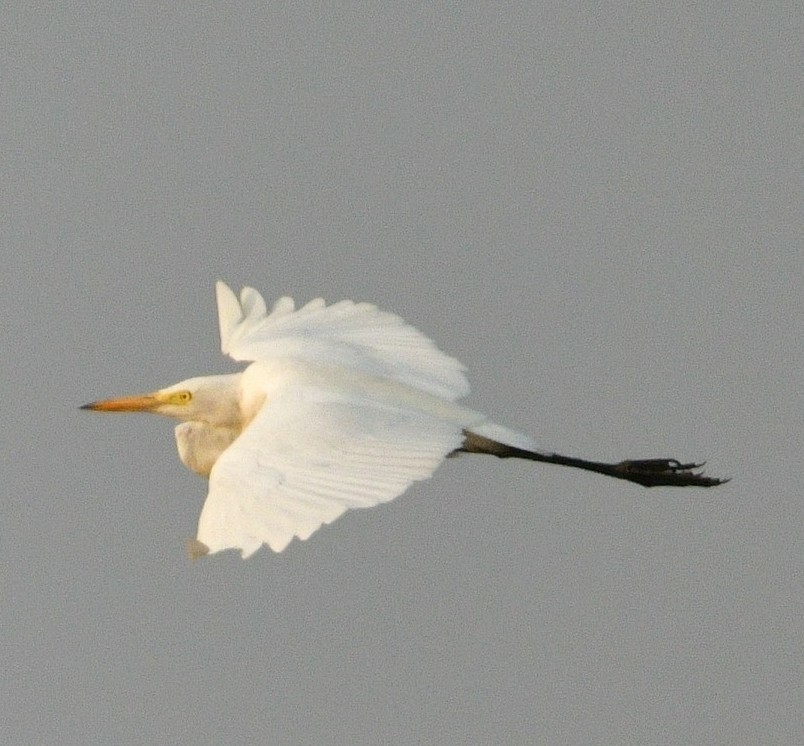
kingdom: Animalia
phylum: Chordata
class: Aves
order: Pelecaniformes
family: Ardeidae
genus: Egretta
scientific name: Egretta intermedia
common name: Intermediate egret
